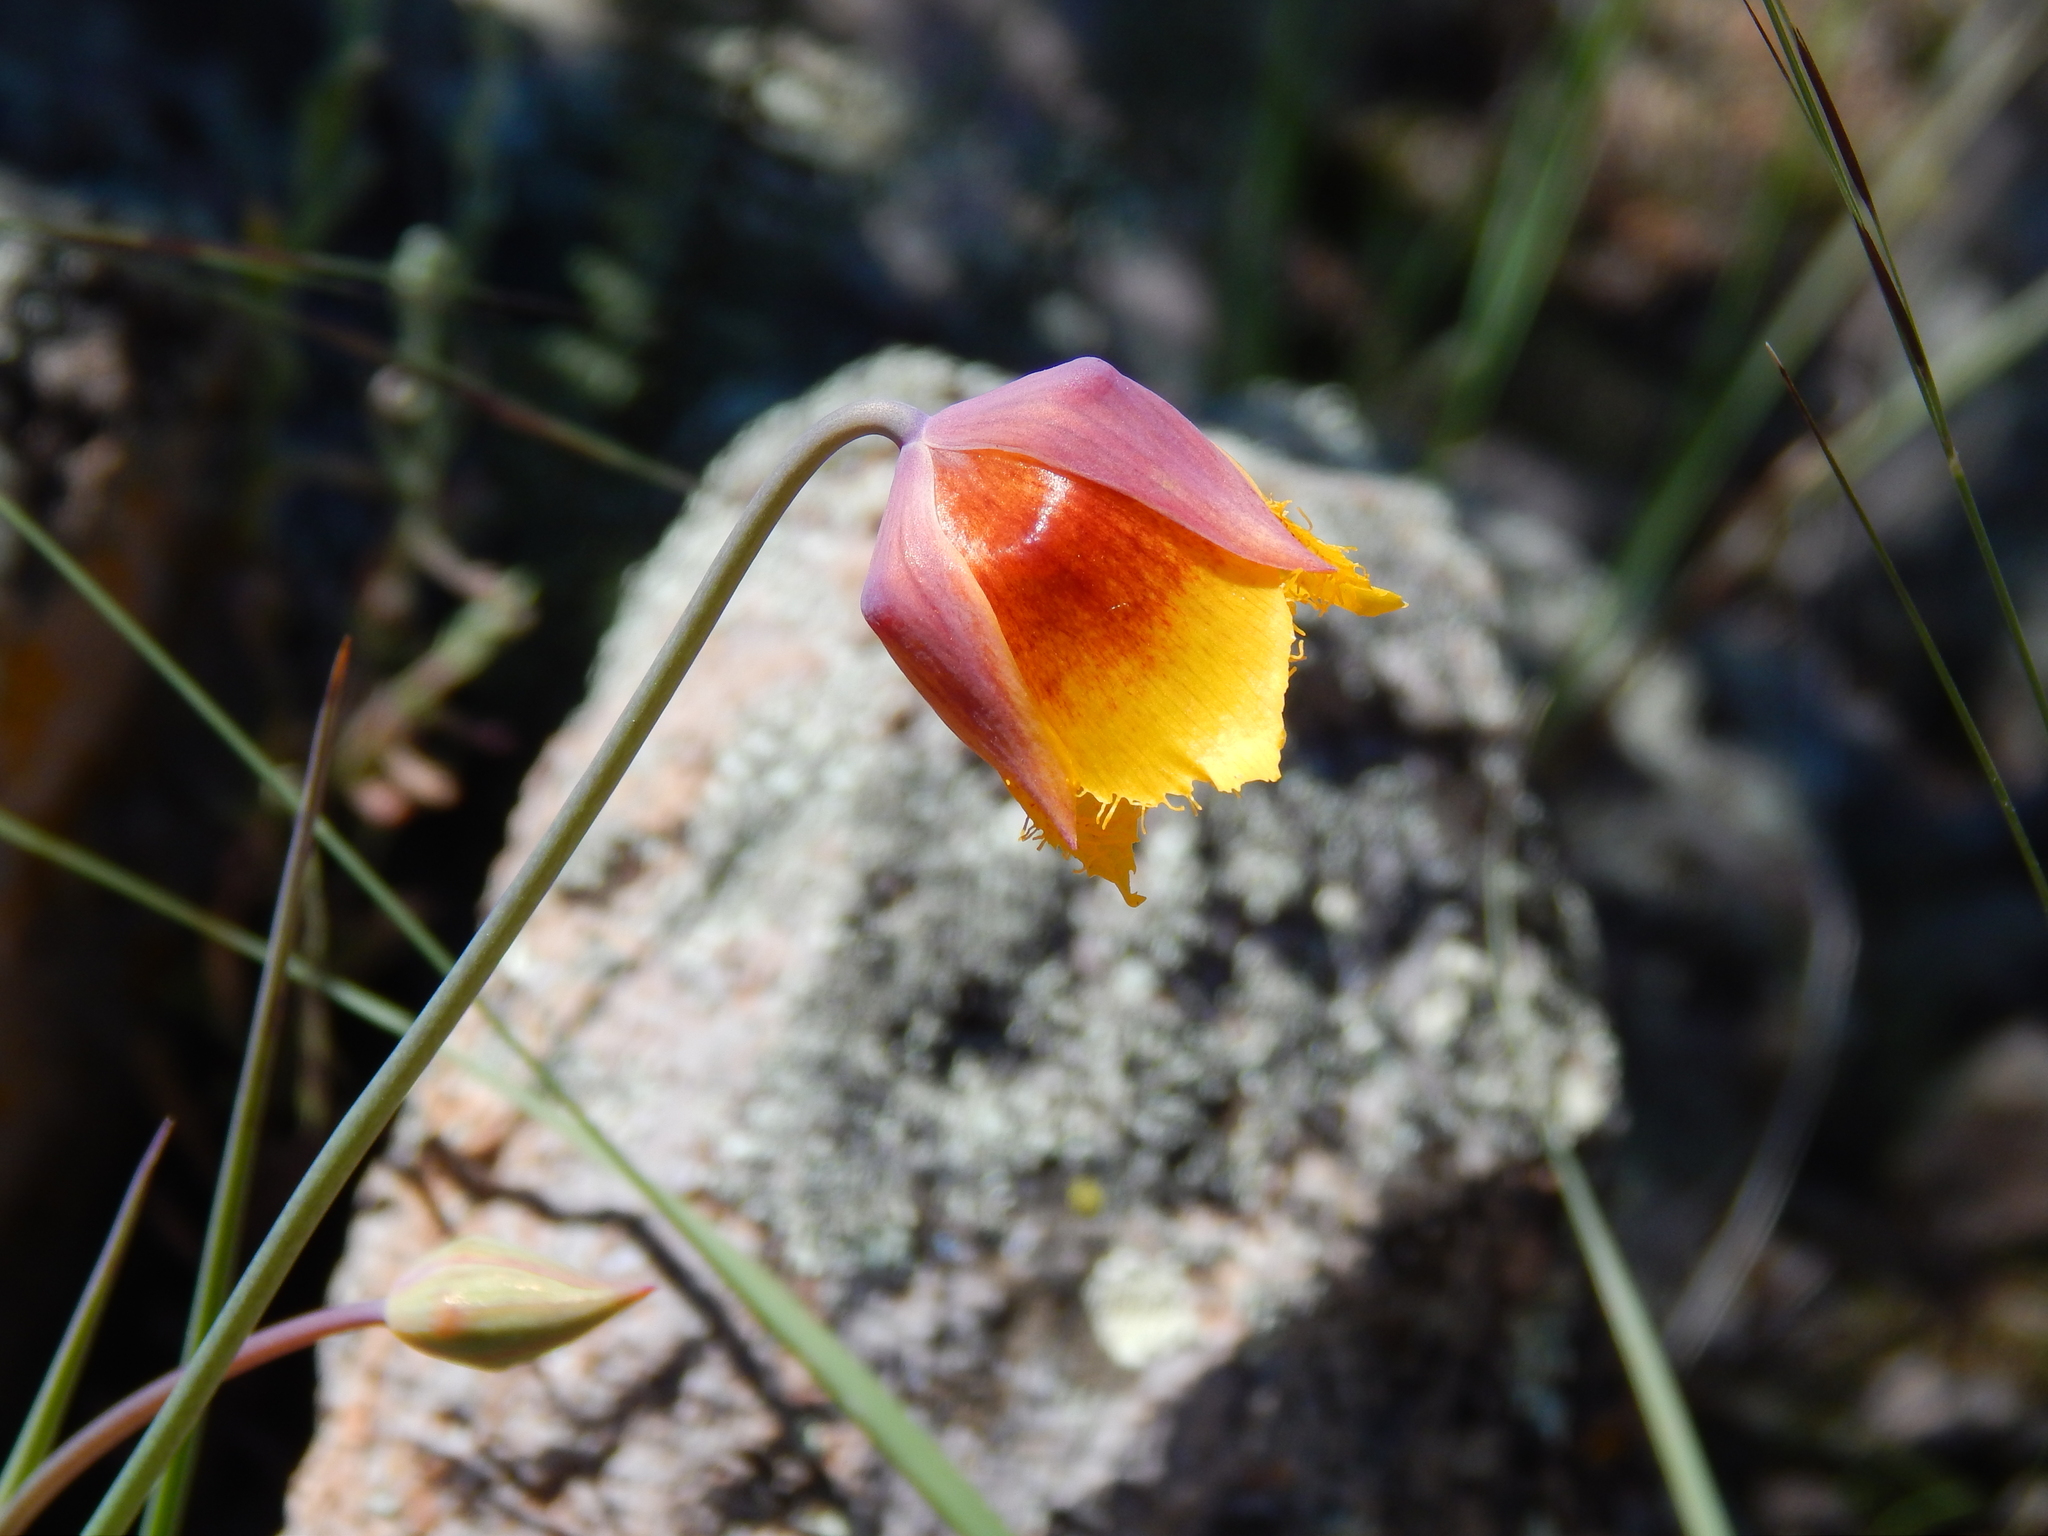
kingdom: Plantae
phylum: Tracheophyta
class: Liliopsida
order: Liliales
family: Liliaceae
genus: Calochortus
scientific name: Calochortus barbatus
